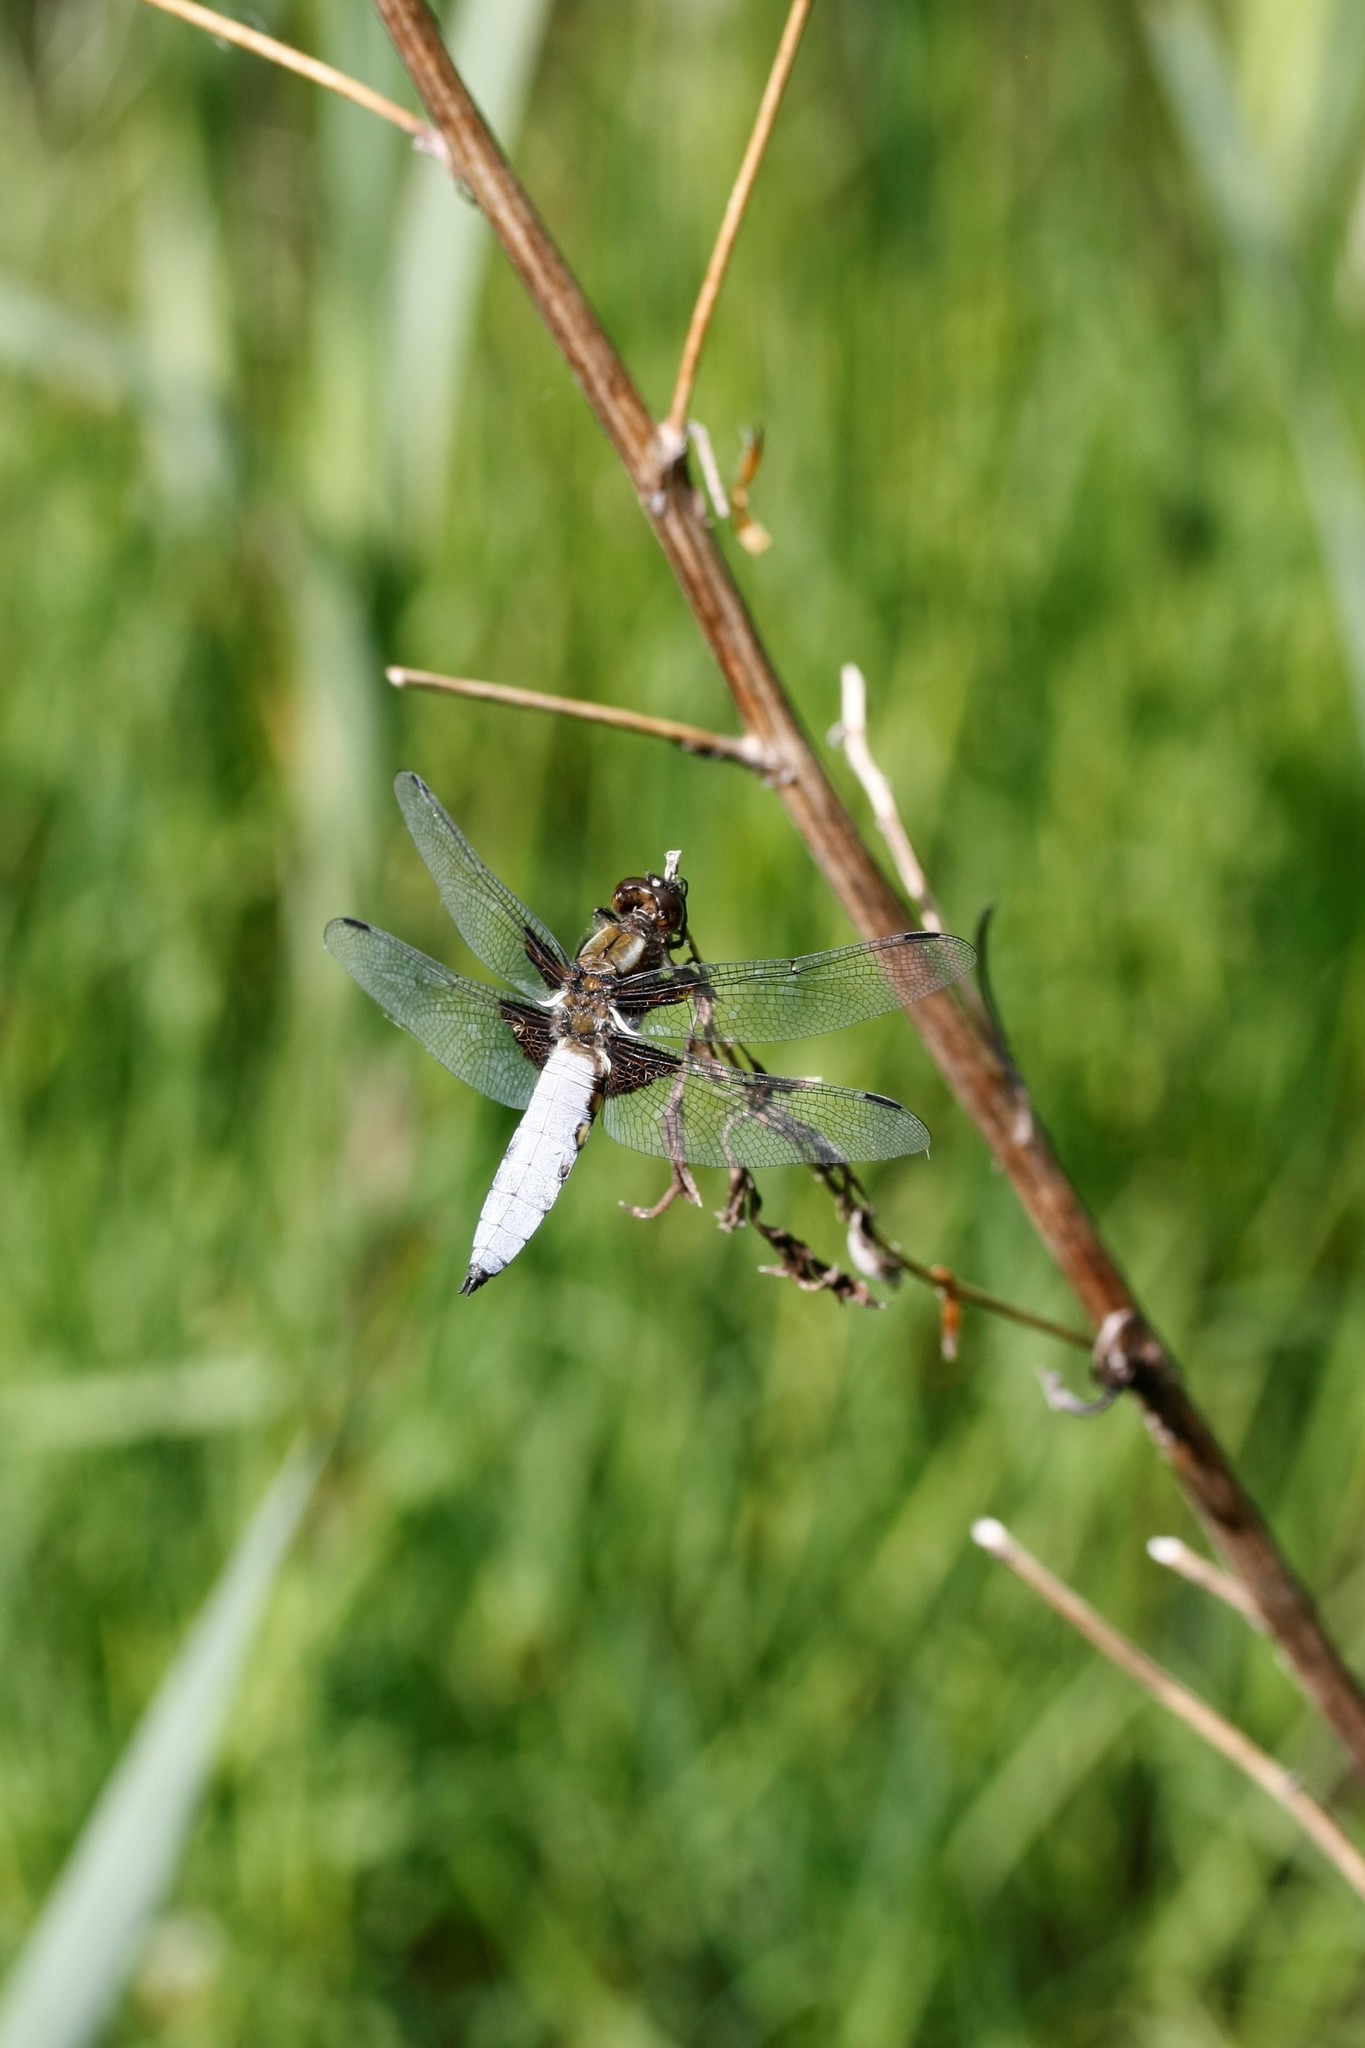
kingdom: Animalia
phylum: Arthropoda
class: Insecta
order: Odonata
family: Libellulidae
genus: Libellula
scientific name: Libellula depressa
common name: Broad-bodied chaser
